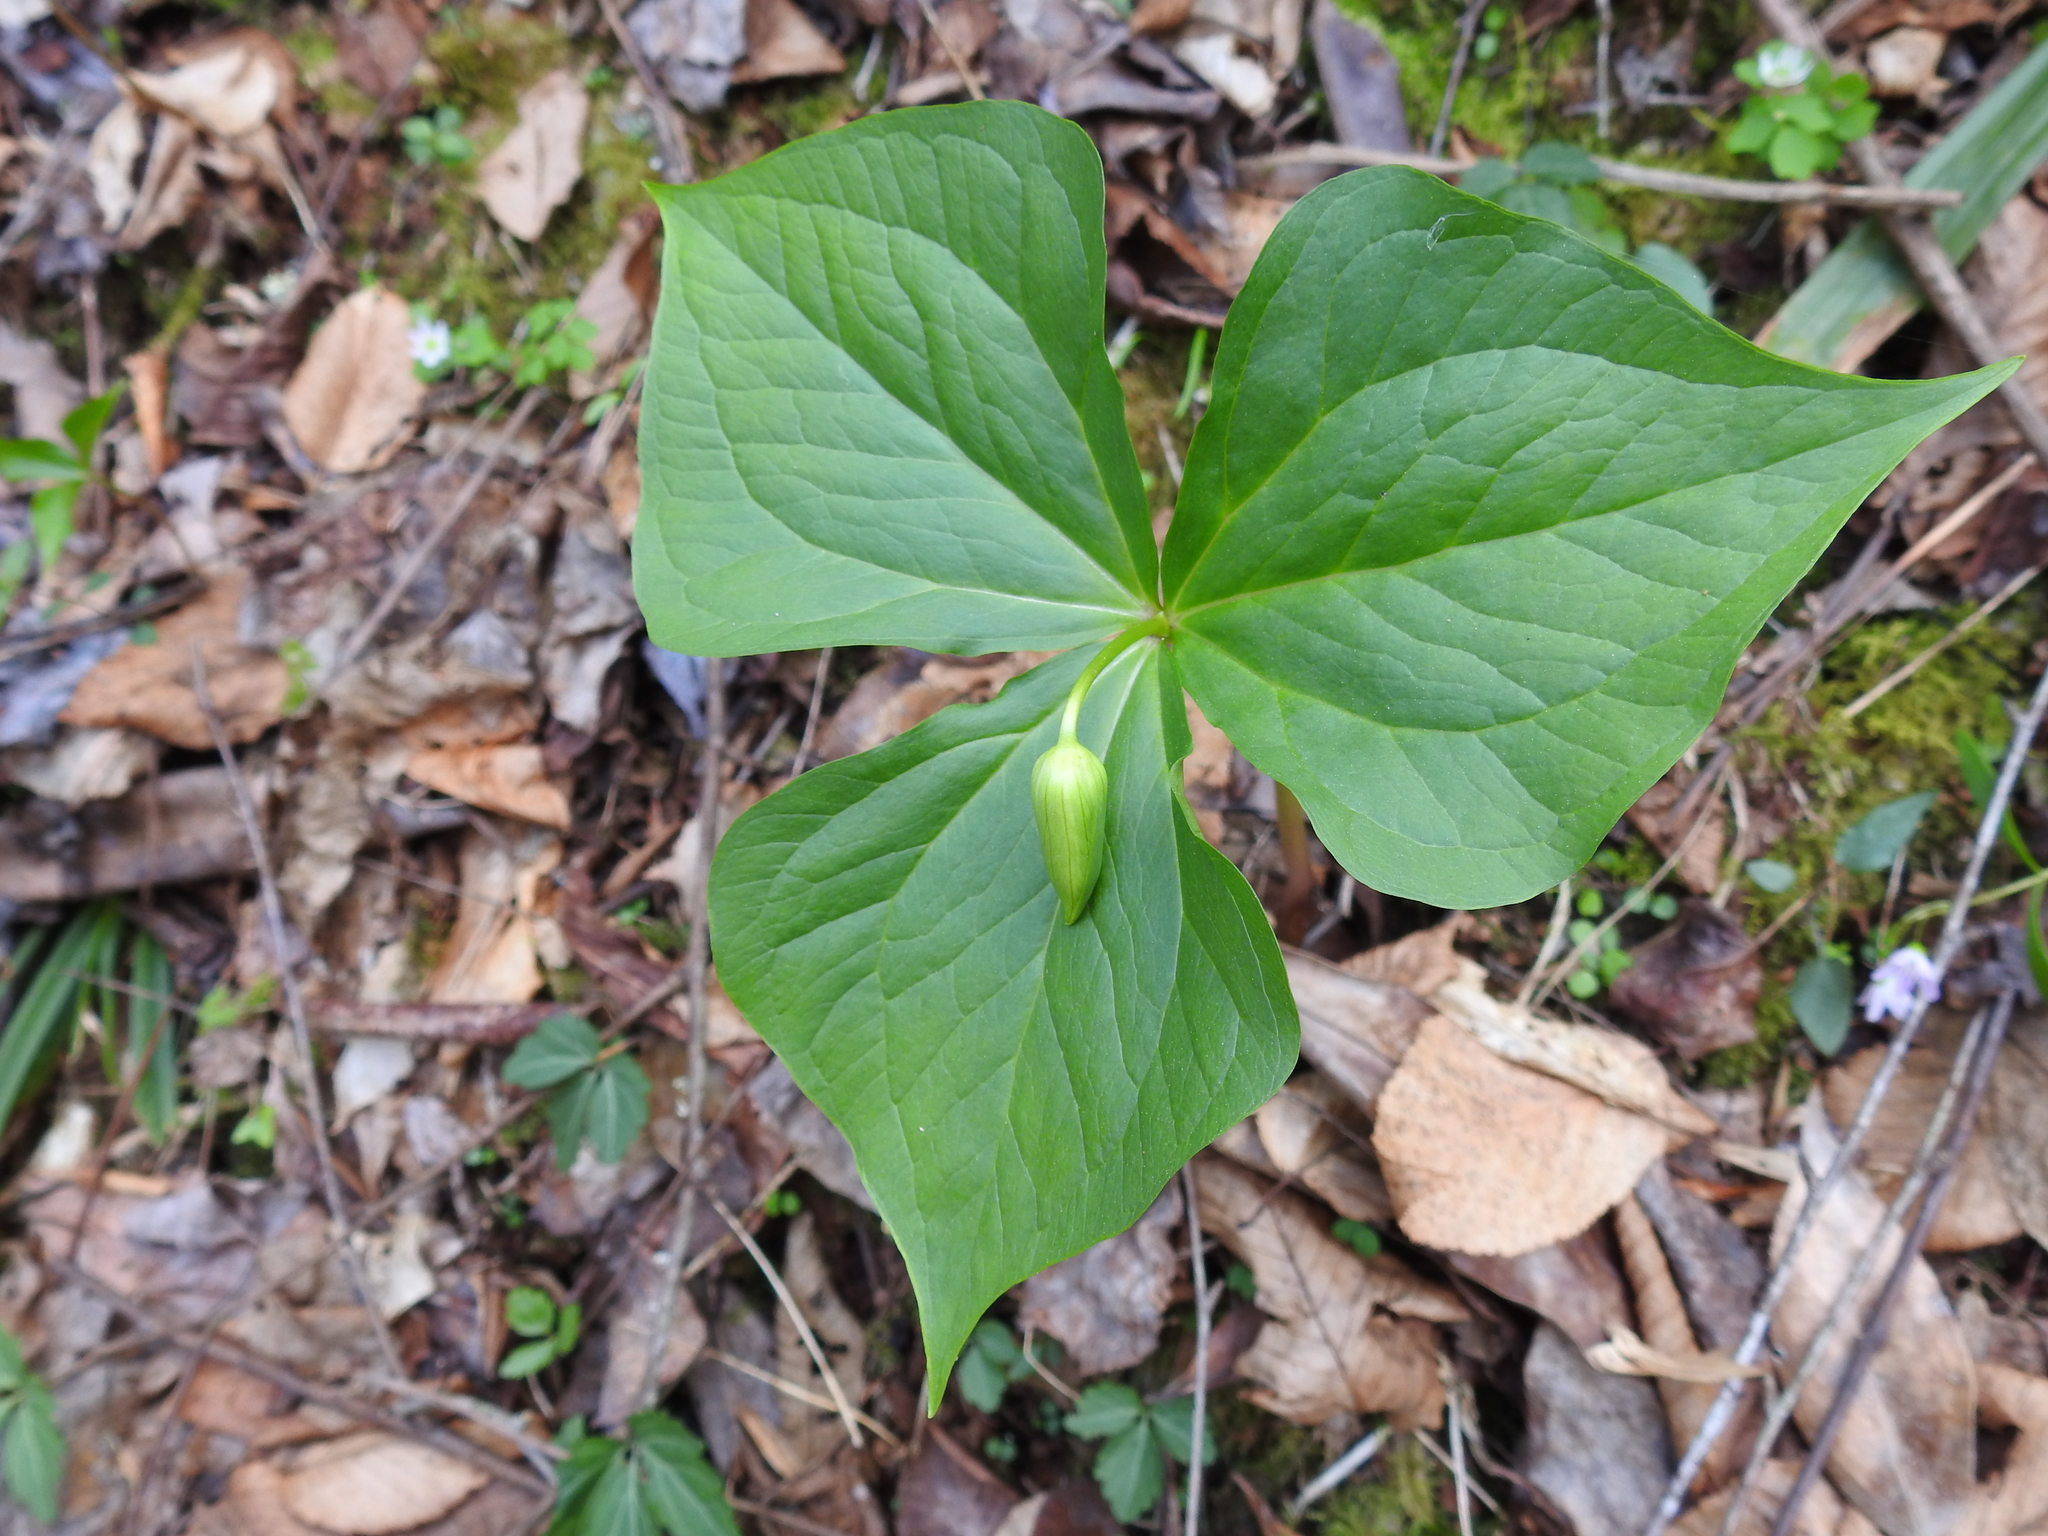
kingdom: Plantae
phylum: Tracheophyta
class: Liliopsida
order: Liliales
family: Melanthiaceae
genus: Trillium
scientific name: Trillium erectum
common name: Purple trillium
